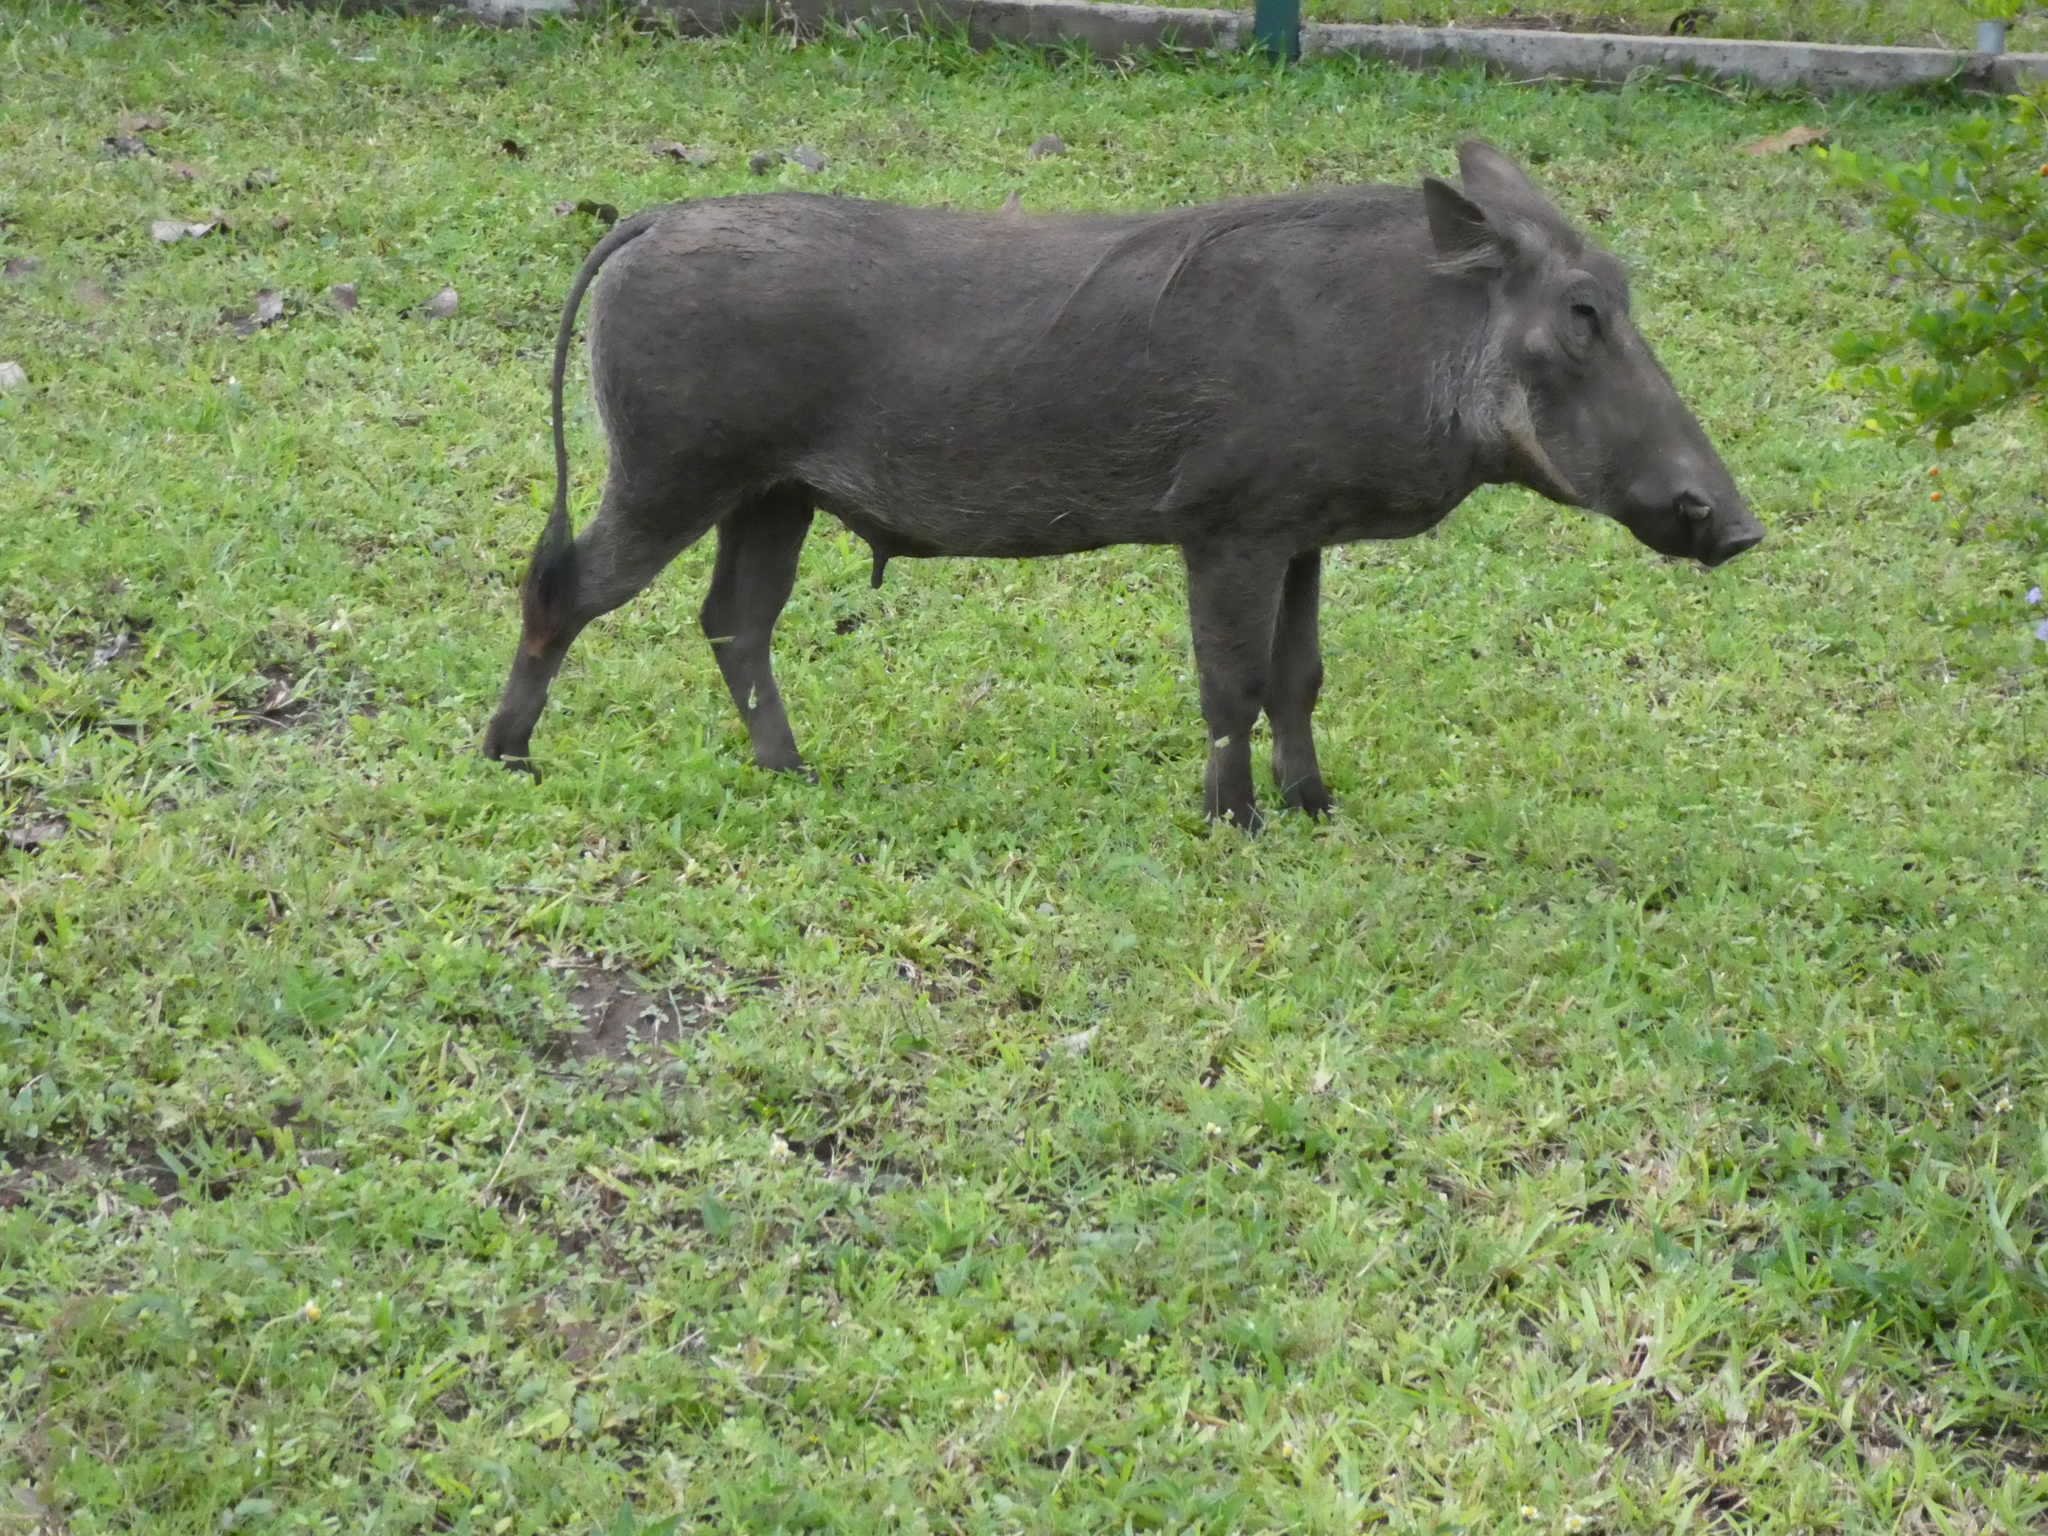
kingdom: Animalia
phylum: Chordata
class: Mammalia
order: Artiodactyla
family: Suidae
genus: Phacochoerus
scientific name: Phacochoerus africanus
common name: Common warthog
